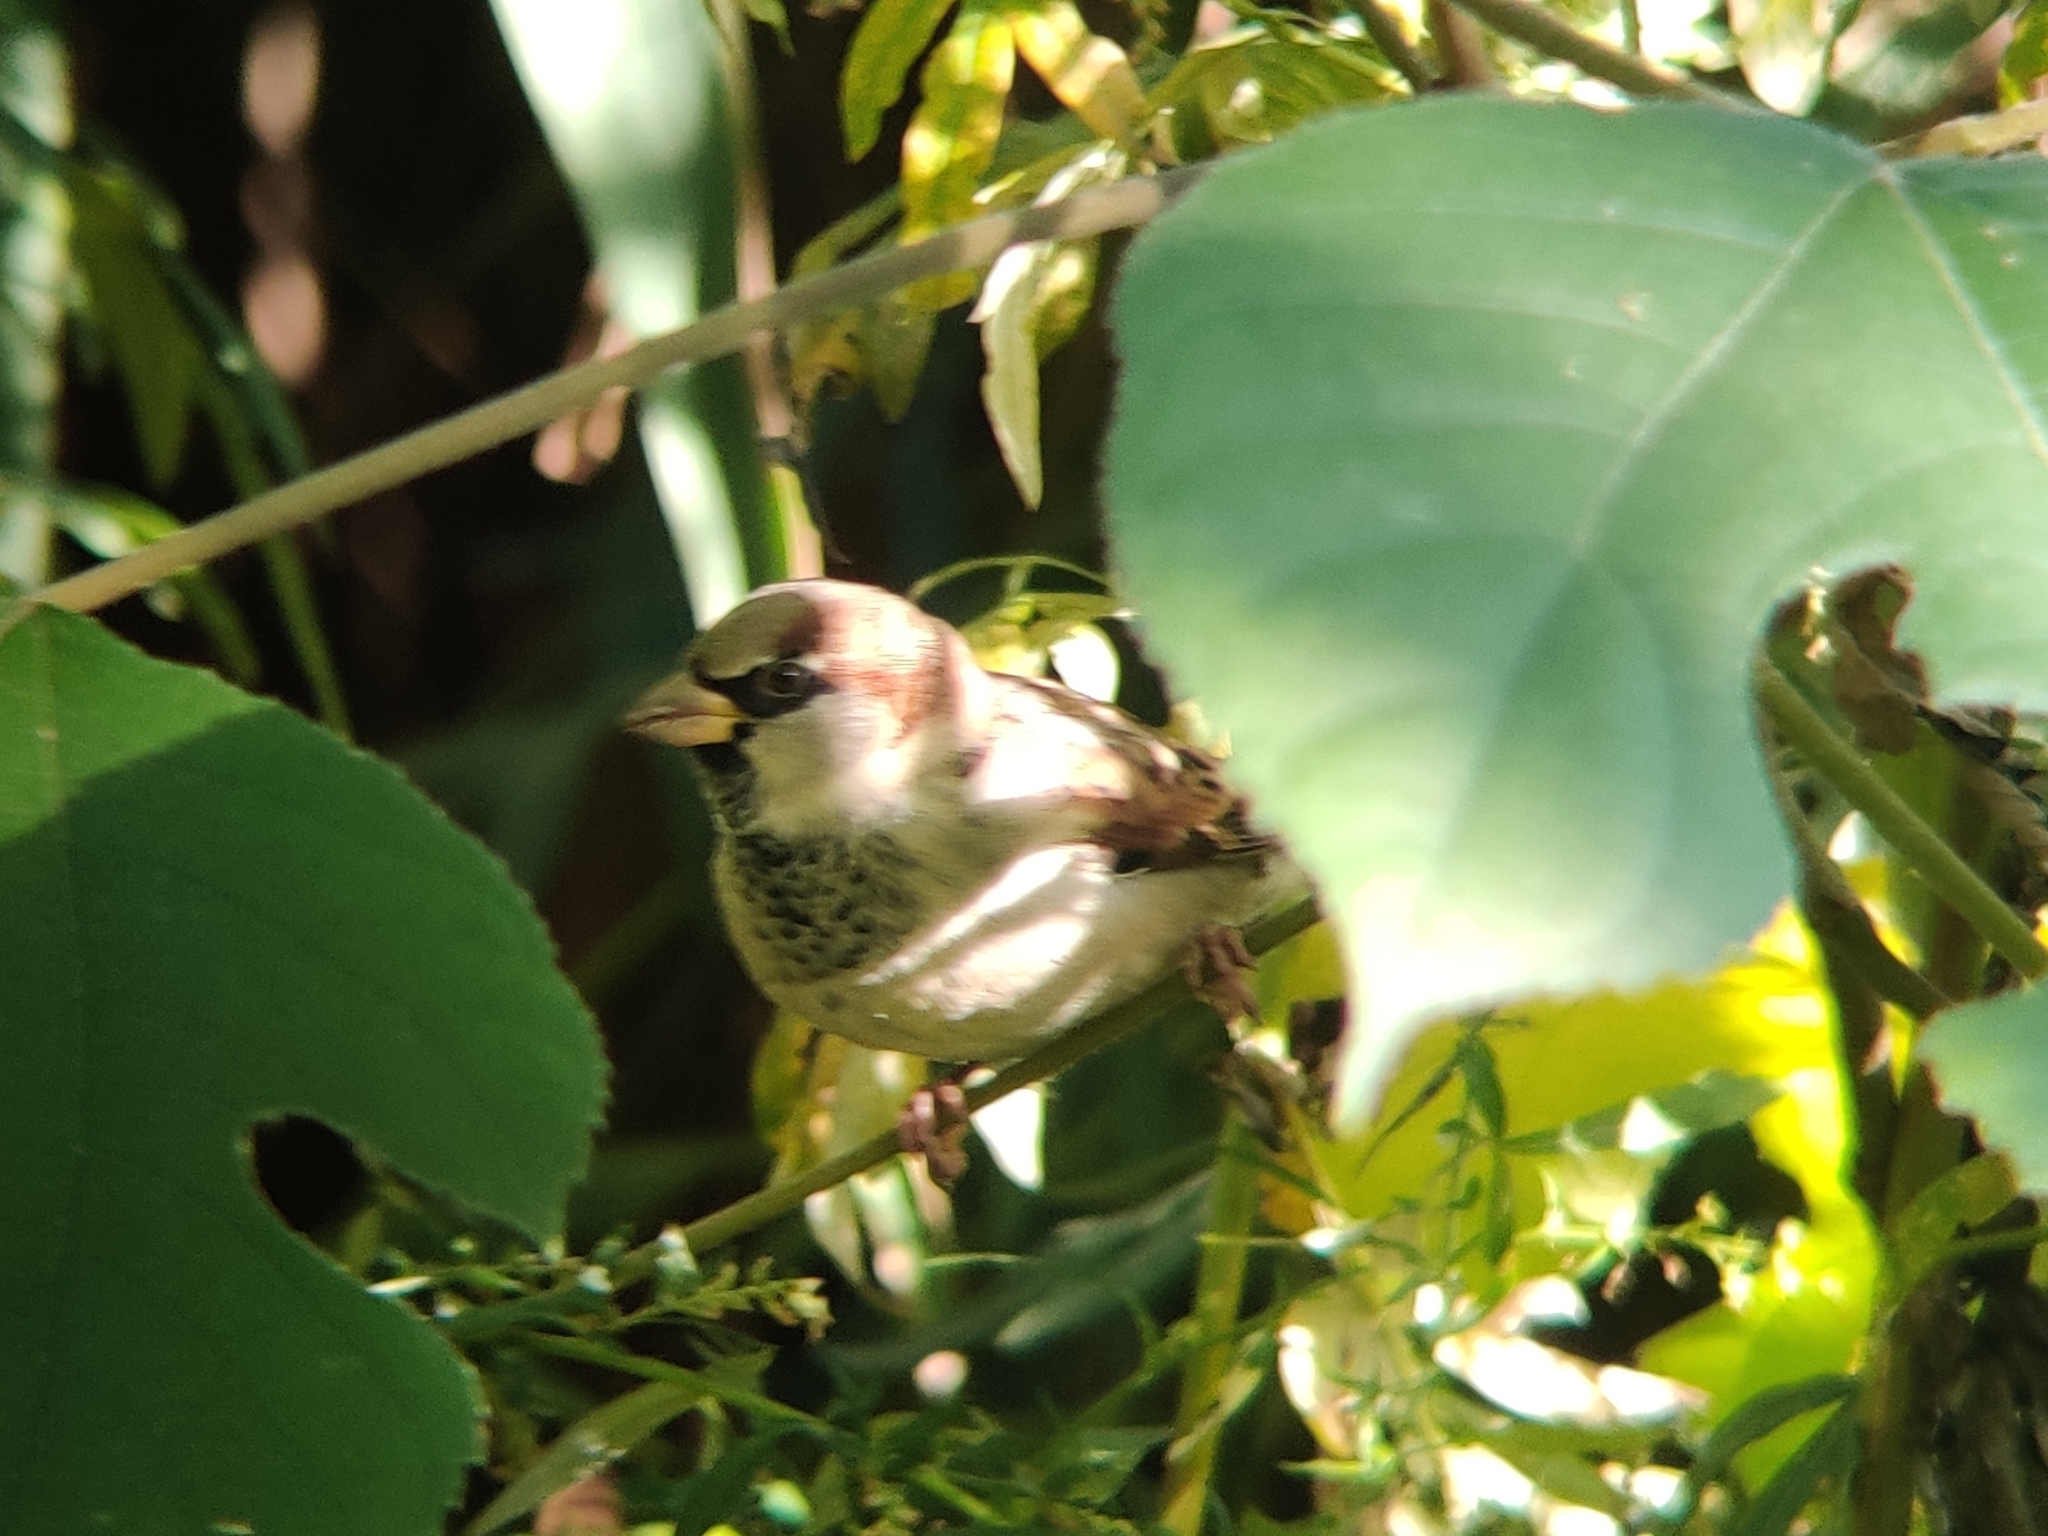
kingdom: Animalia
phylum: Chordata
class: Aves
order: Passeriformes
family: Passeridae
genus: Passer
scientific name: Passer domesticus
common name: House sparrow
